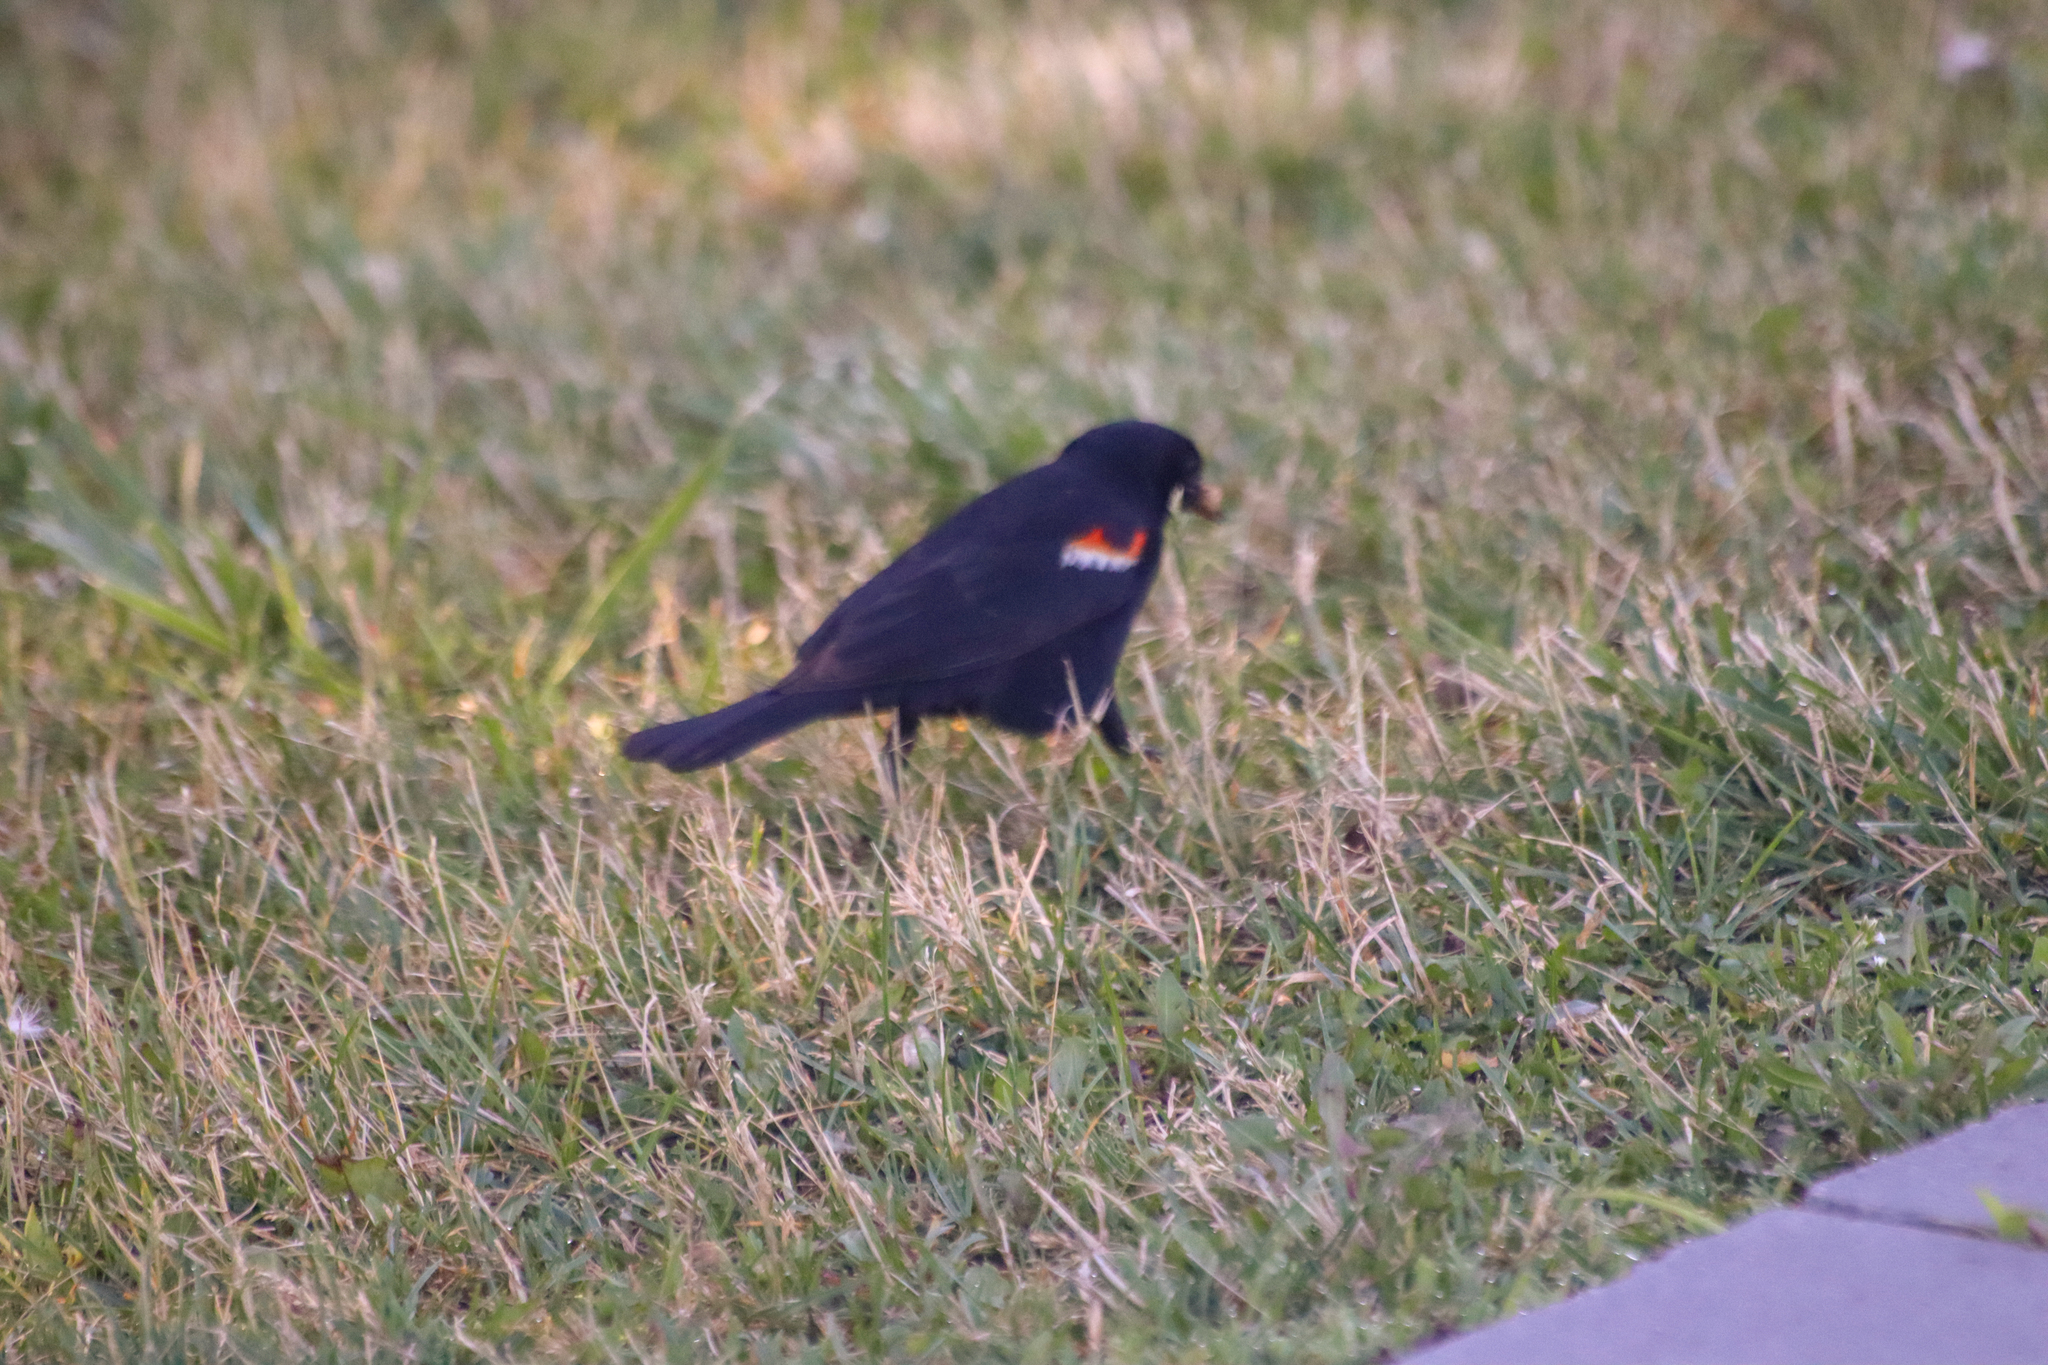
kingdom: Animalia
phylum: Chordata
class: Aves
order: Passeriformes
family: Icteridae
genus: Agelaius
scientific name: Agelaius phoeniceus
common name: Red-winged blackbird
